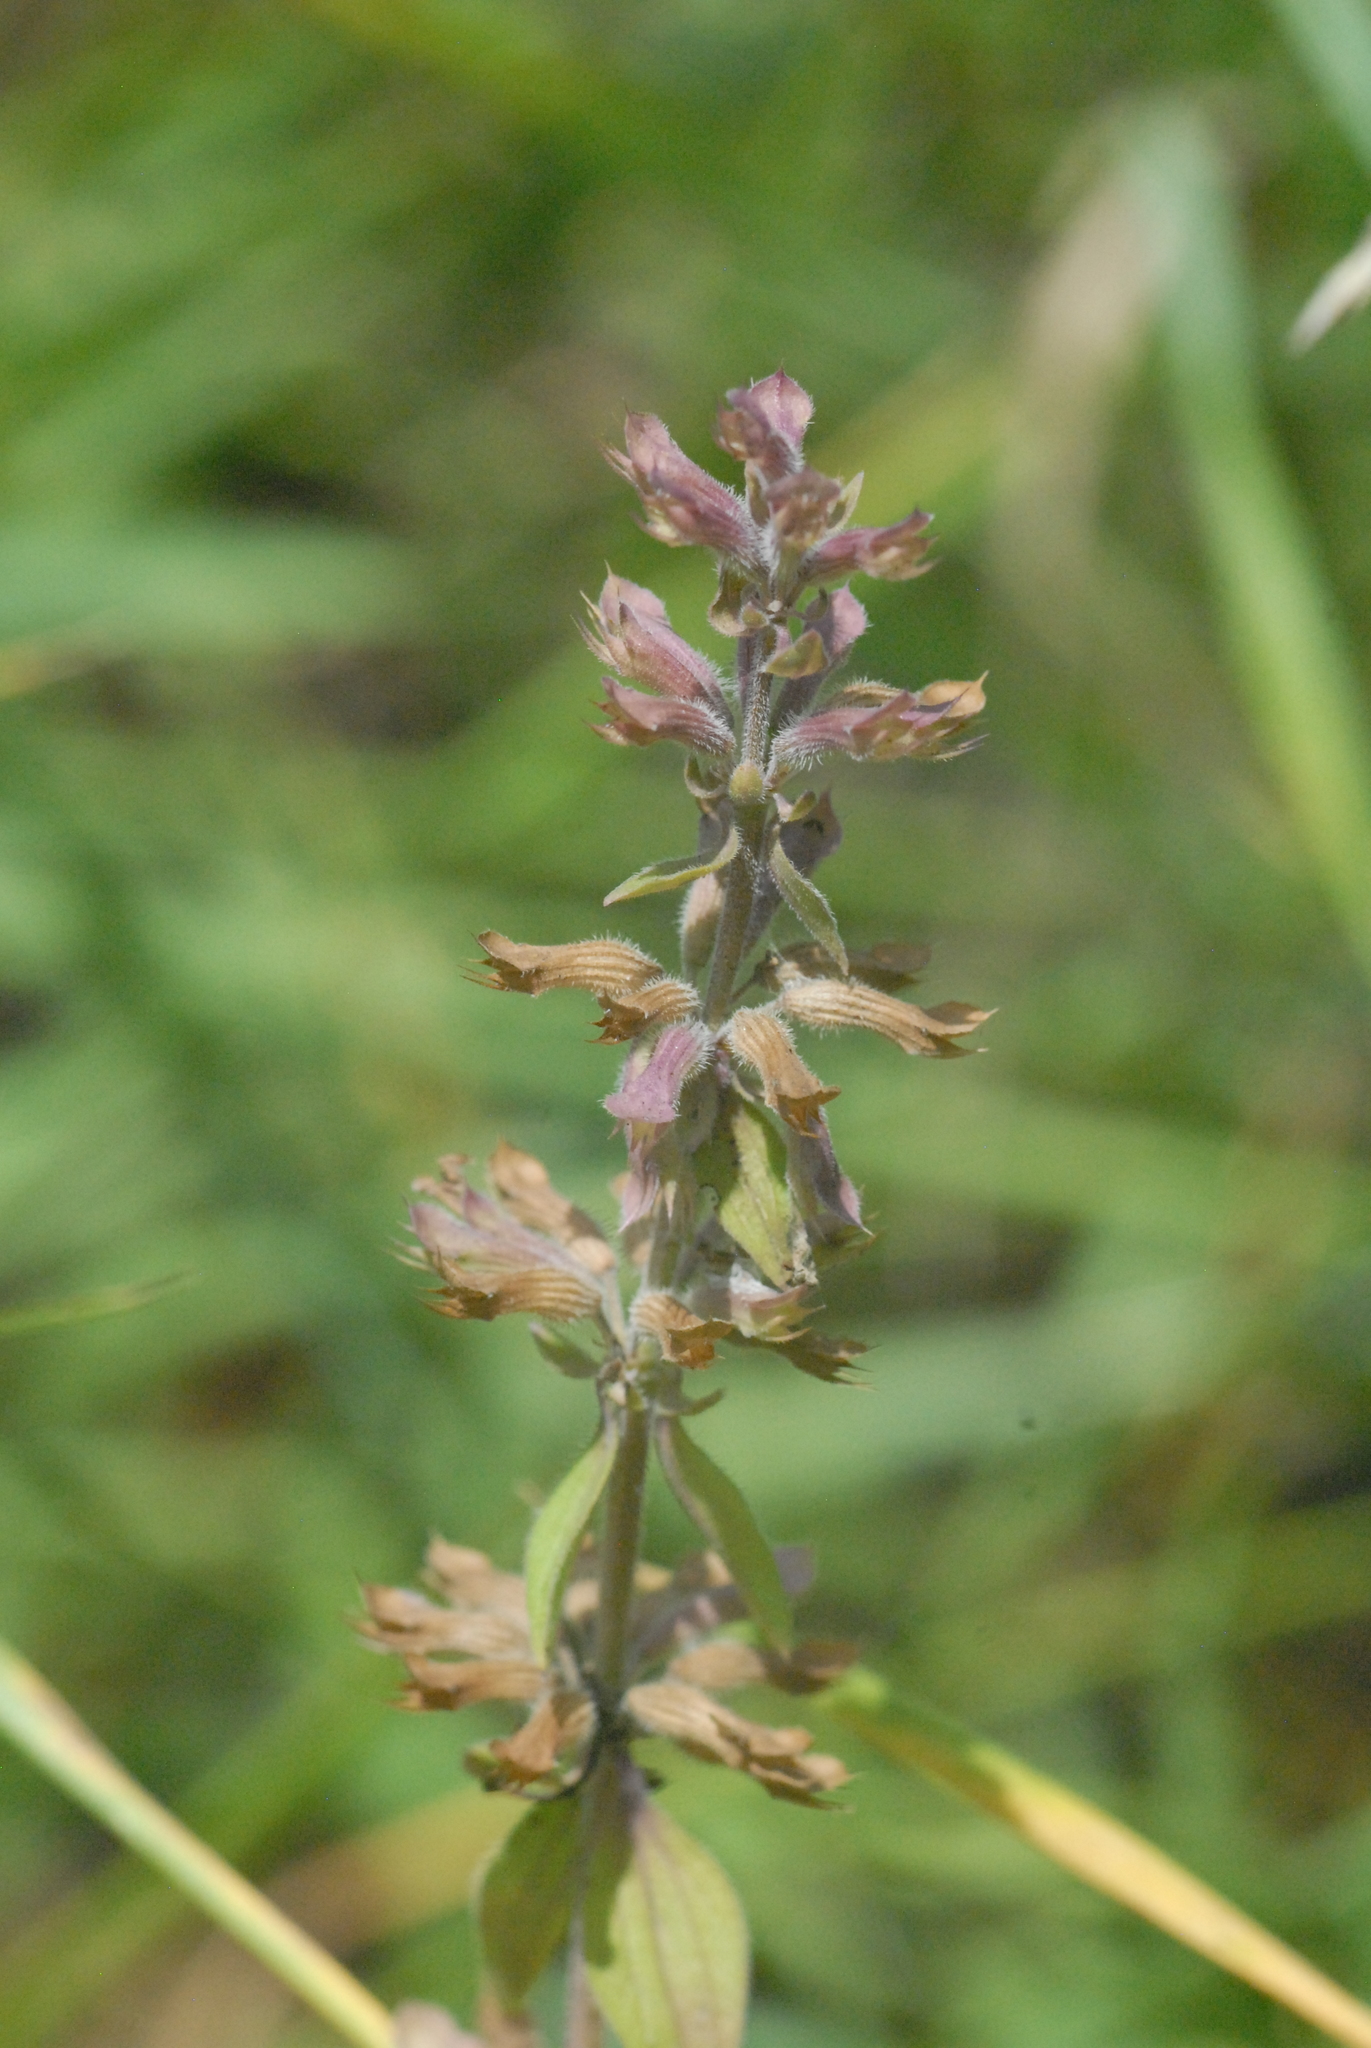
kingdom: Plantae
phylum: Tracheophyta
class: Magnoliopsida
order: Lamiales
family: Lamiaceae
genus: Dracocephalum
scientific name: Dracocephalum nutans
